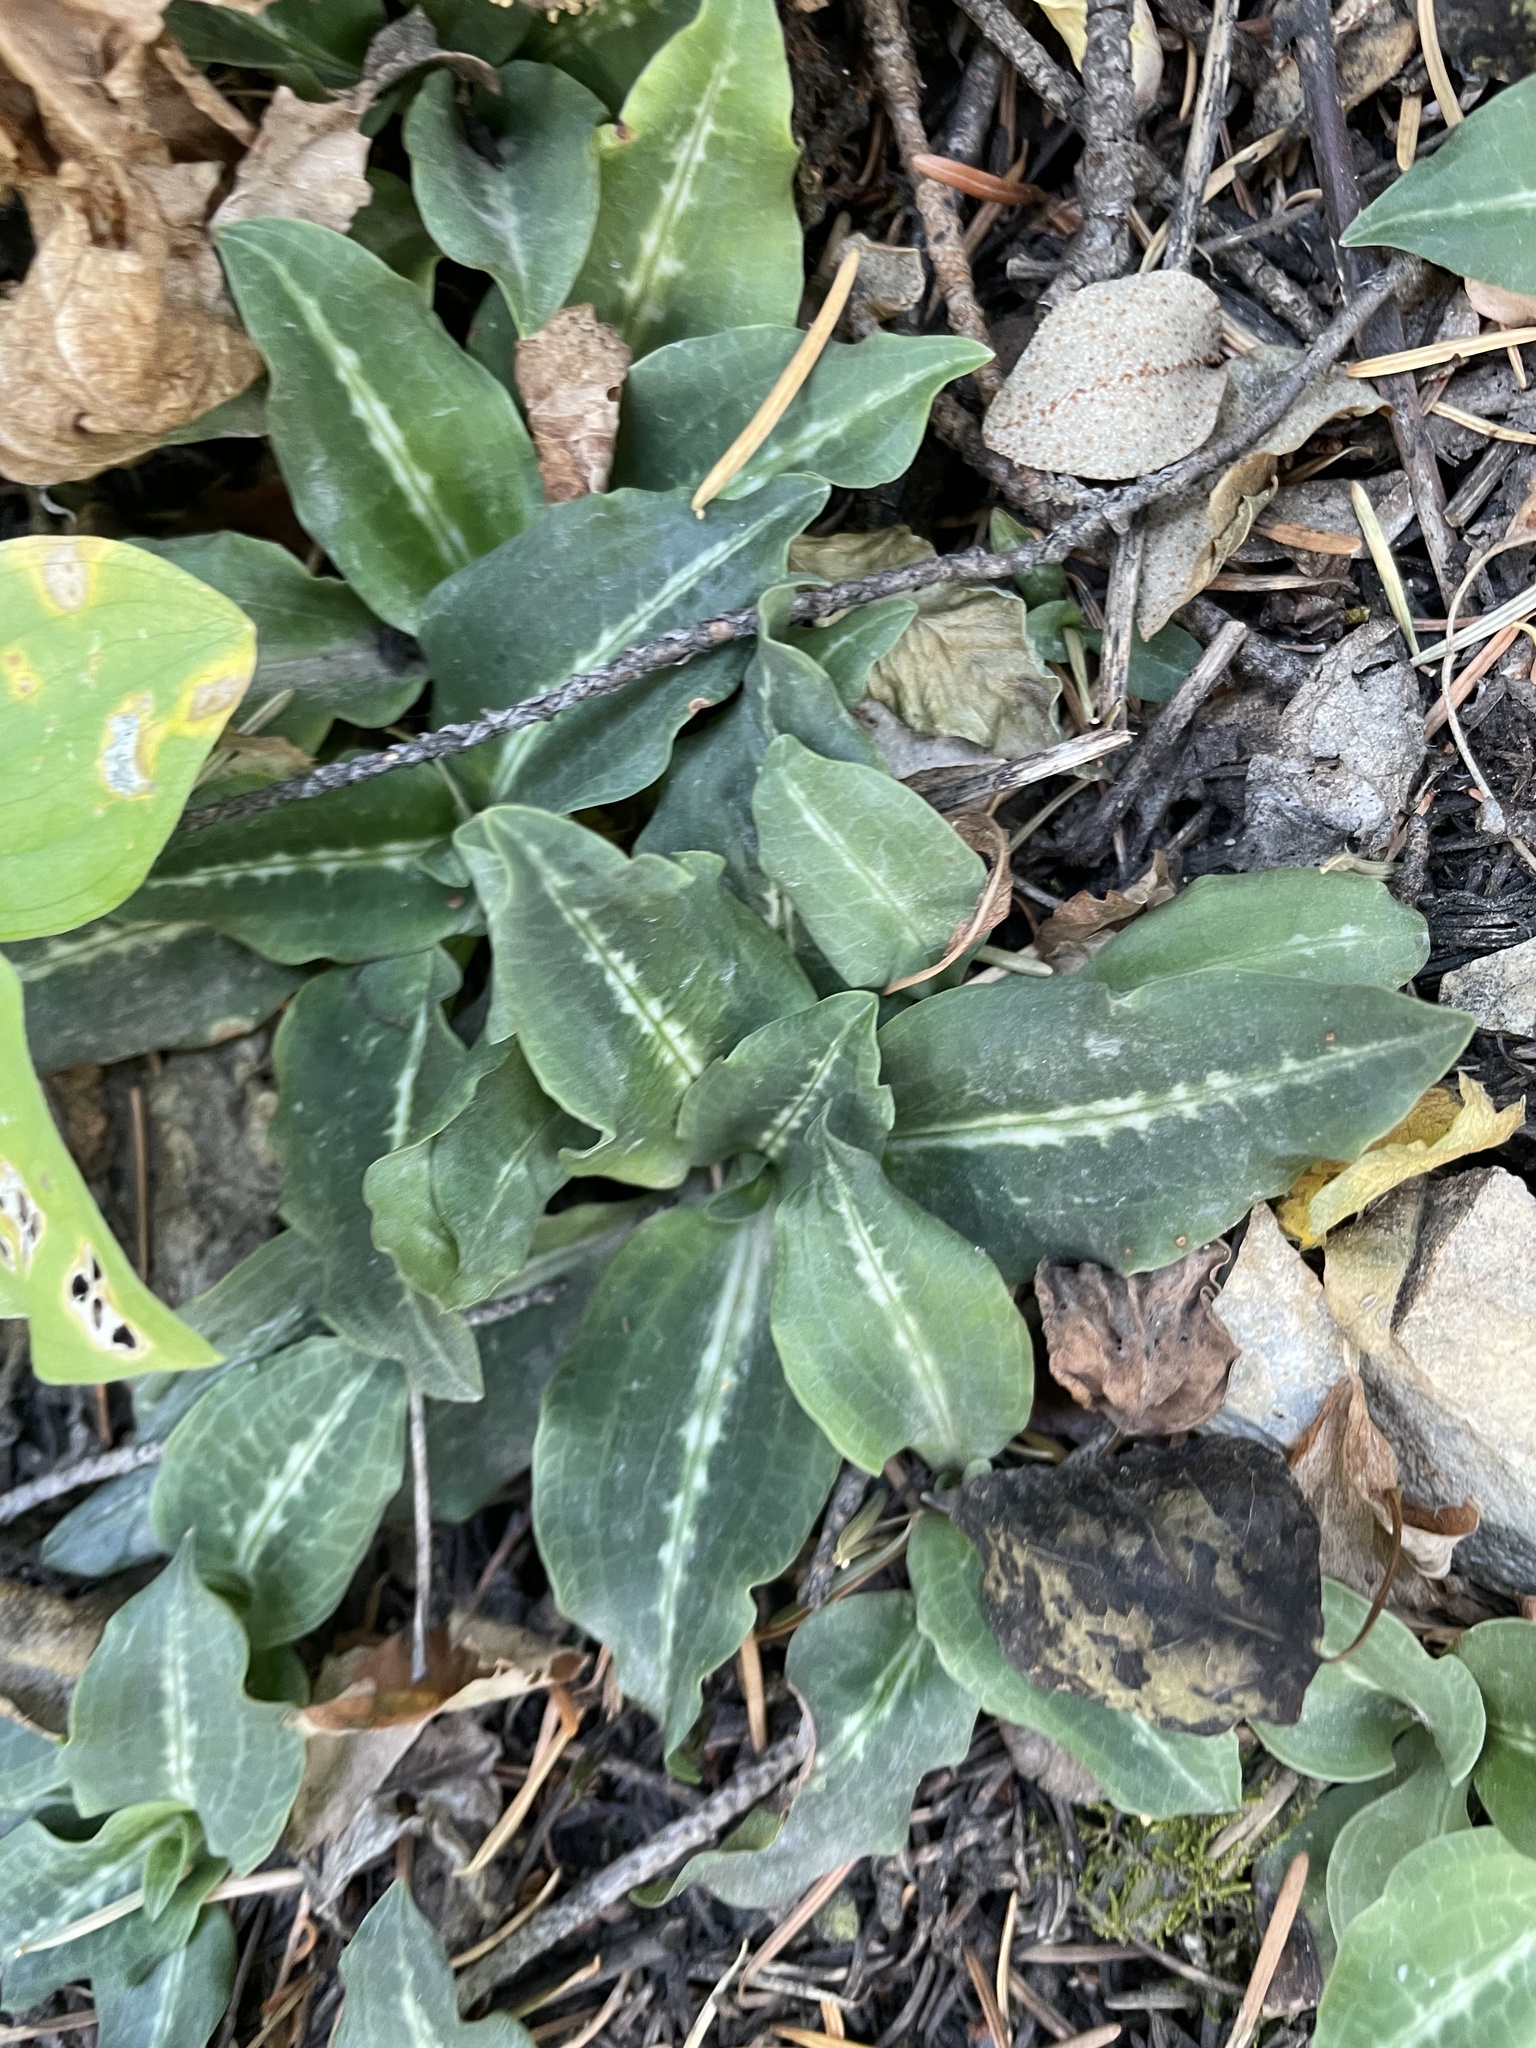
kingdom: Plantae
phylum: Tracheophyta
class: Liliopsida
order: Asparagales
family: Orchidaceae
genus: Goodyera
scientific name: Goodyera oblongifolia
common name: Giant rattlesnake-plantain
